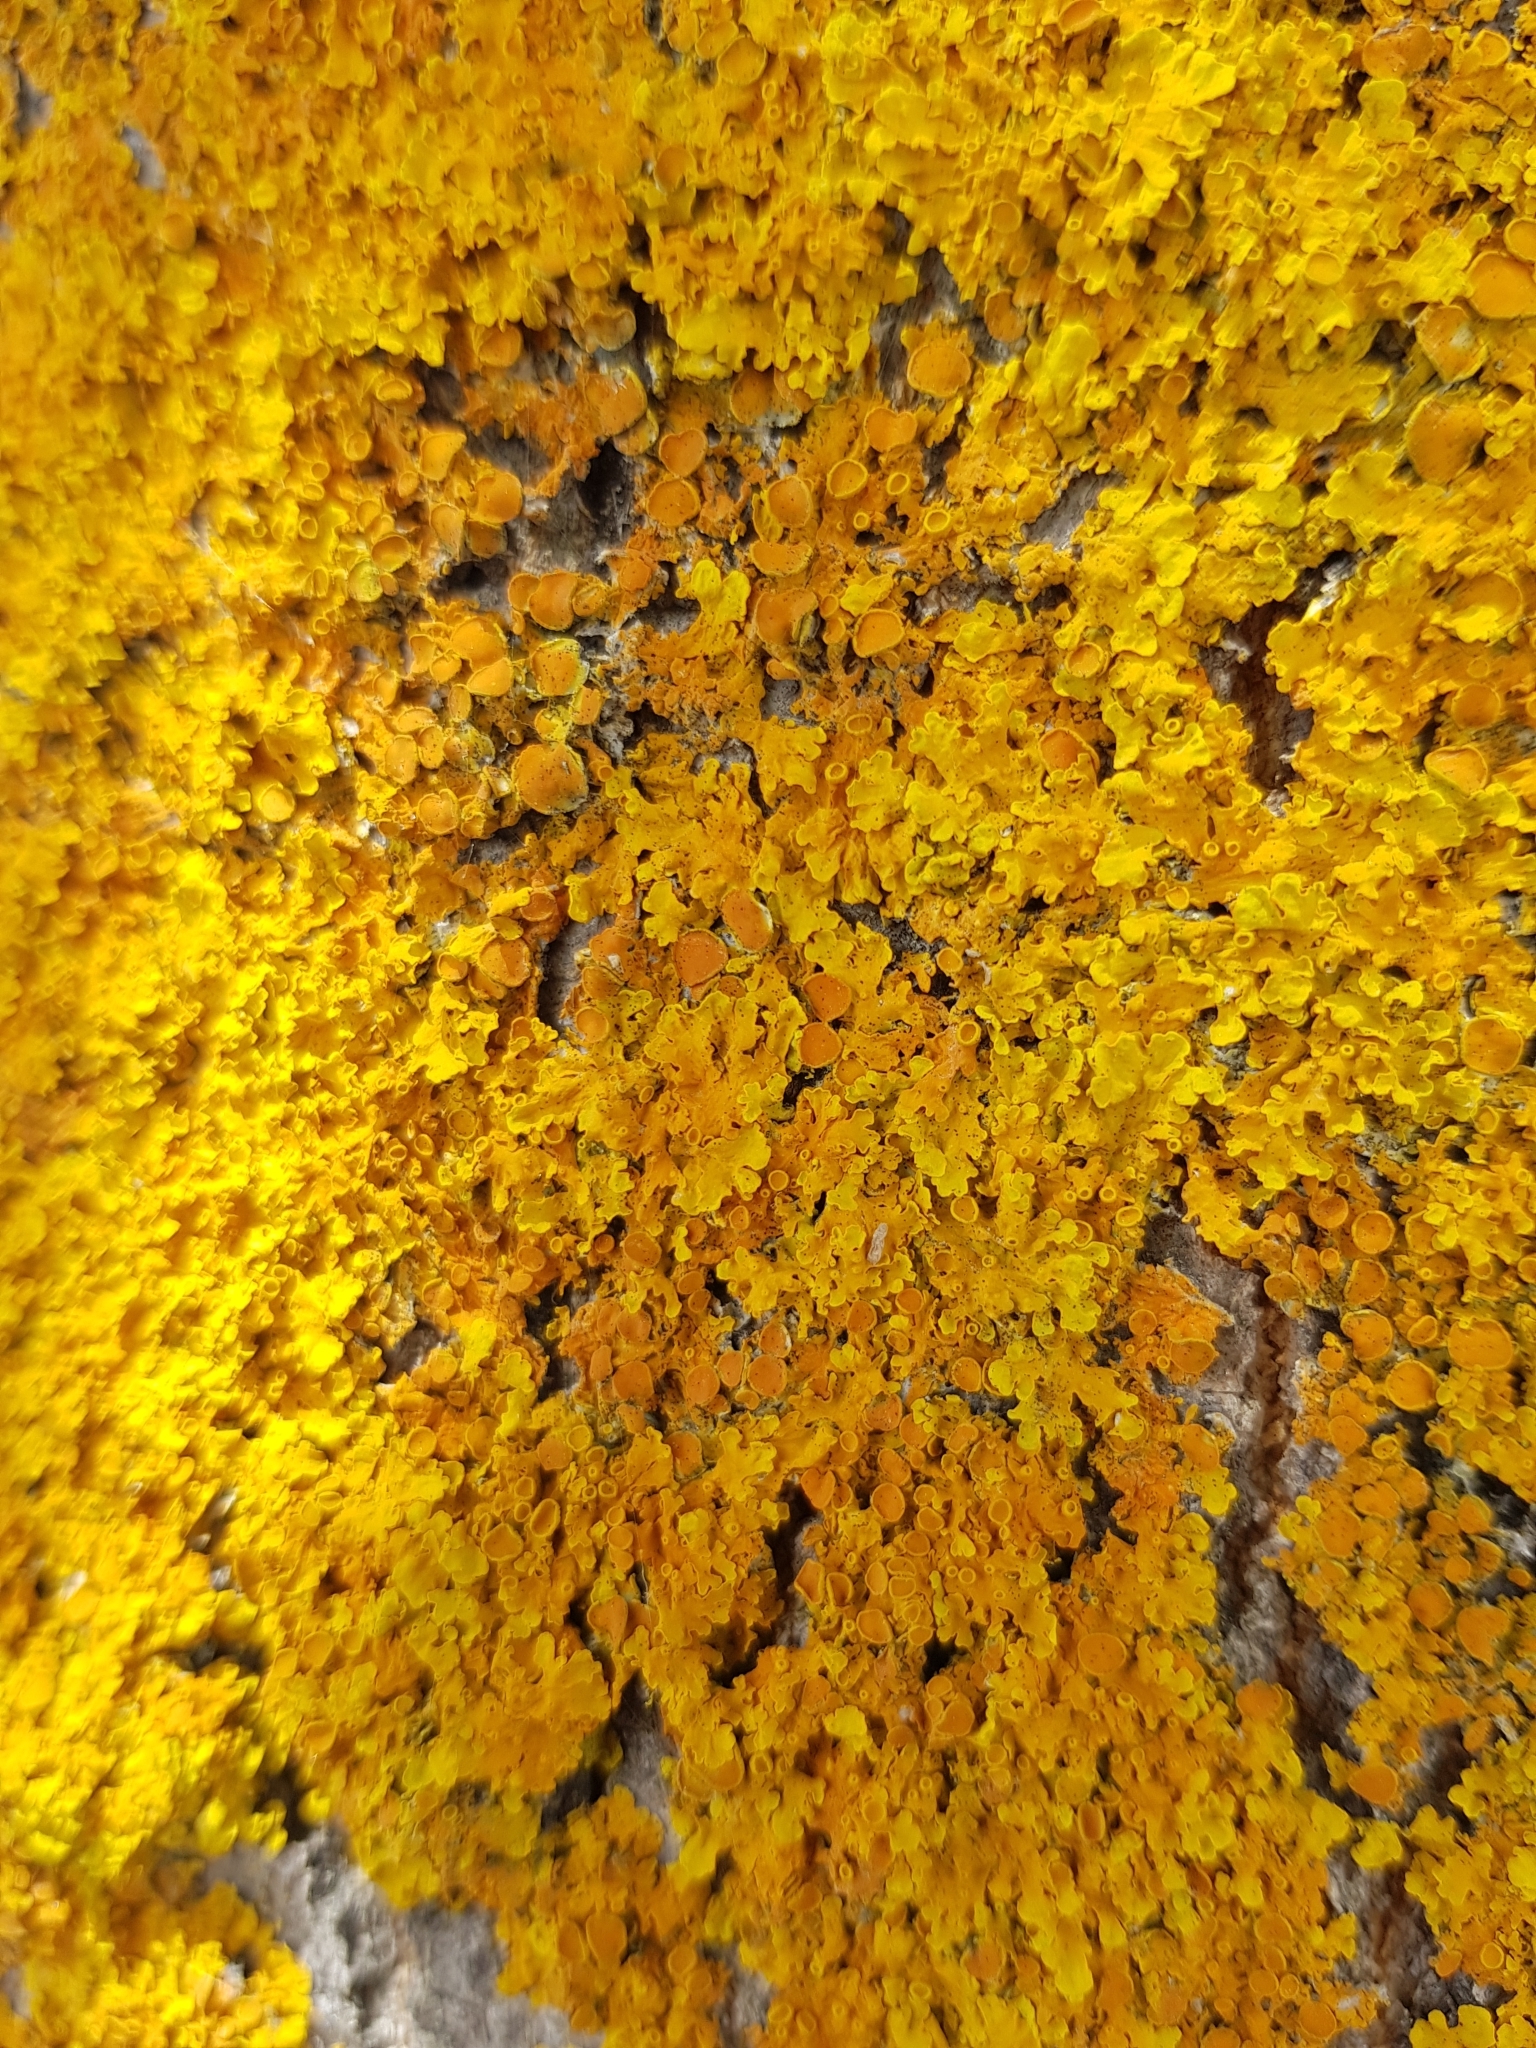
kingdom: Fungi
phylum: Ascomycota
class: Lecanoromycetes
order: Teloschistales
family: Teloschistaceae
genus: Xanthoria
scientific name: Xanthoria parietina
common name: Common orange lichen
